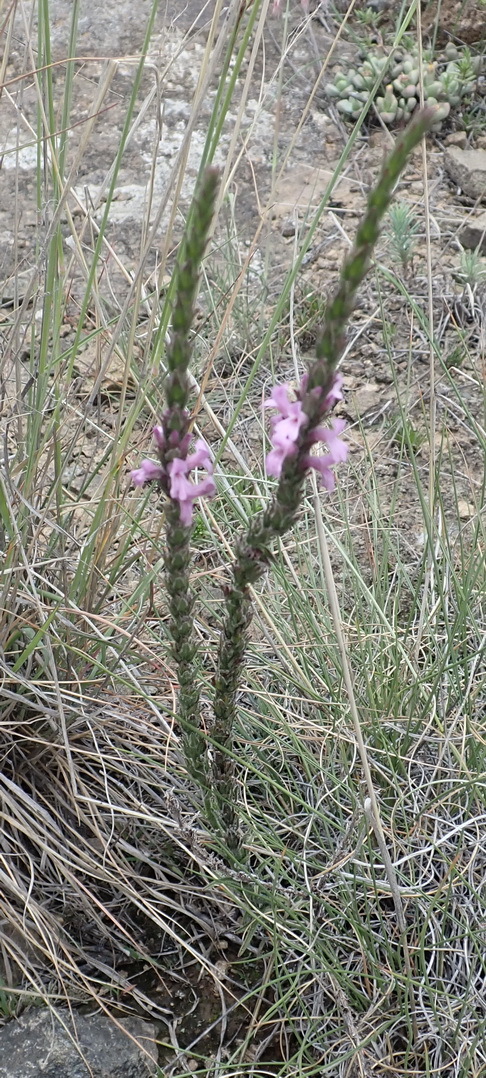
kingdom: Plantae
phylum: Tracheophyta
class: Magnoliopsida
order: Lamiales
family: Orobanchaceae
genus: Striga
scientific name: Striga bilabiata
